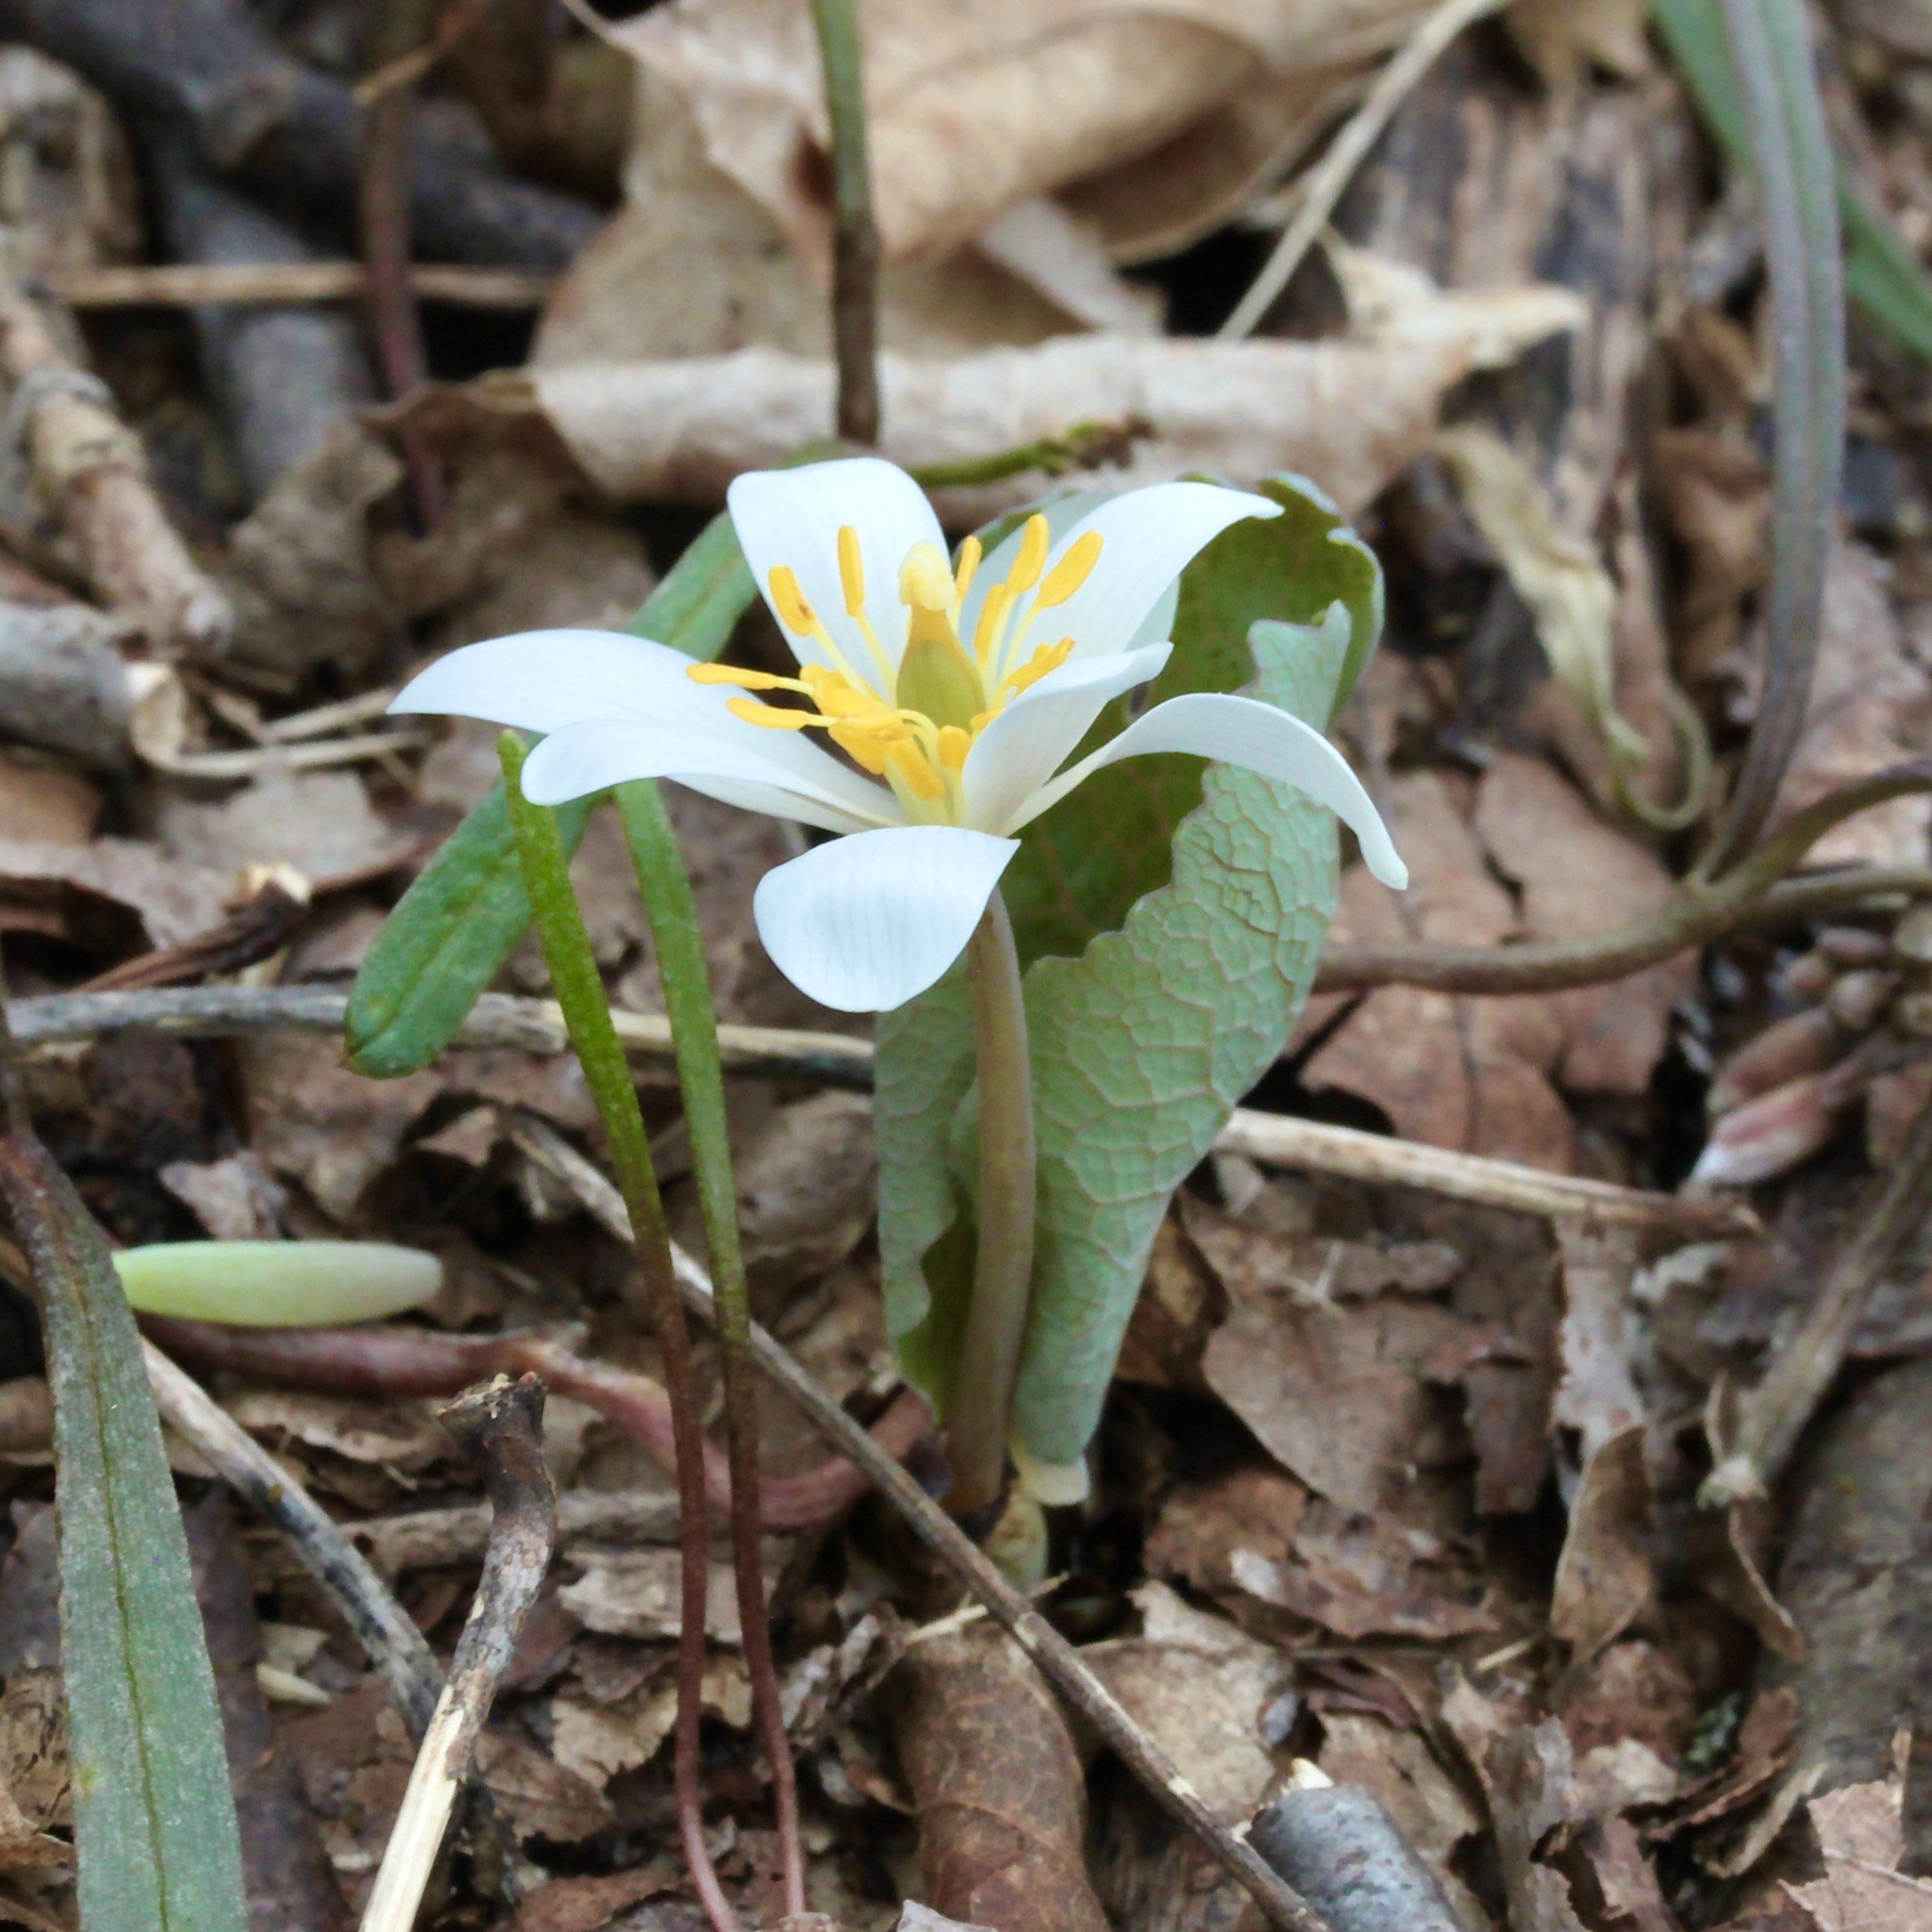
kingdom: Plantae
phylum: Tracheophyta
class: Magnoliopsida
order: Ranunculales
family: Papaveraceae
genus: Sanguinaria
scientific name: Sanguinaria canadensis
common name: Bloodroot
